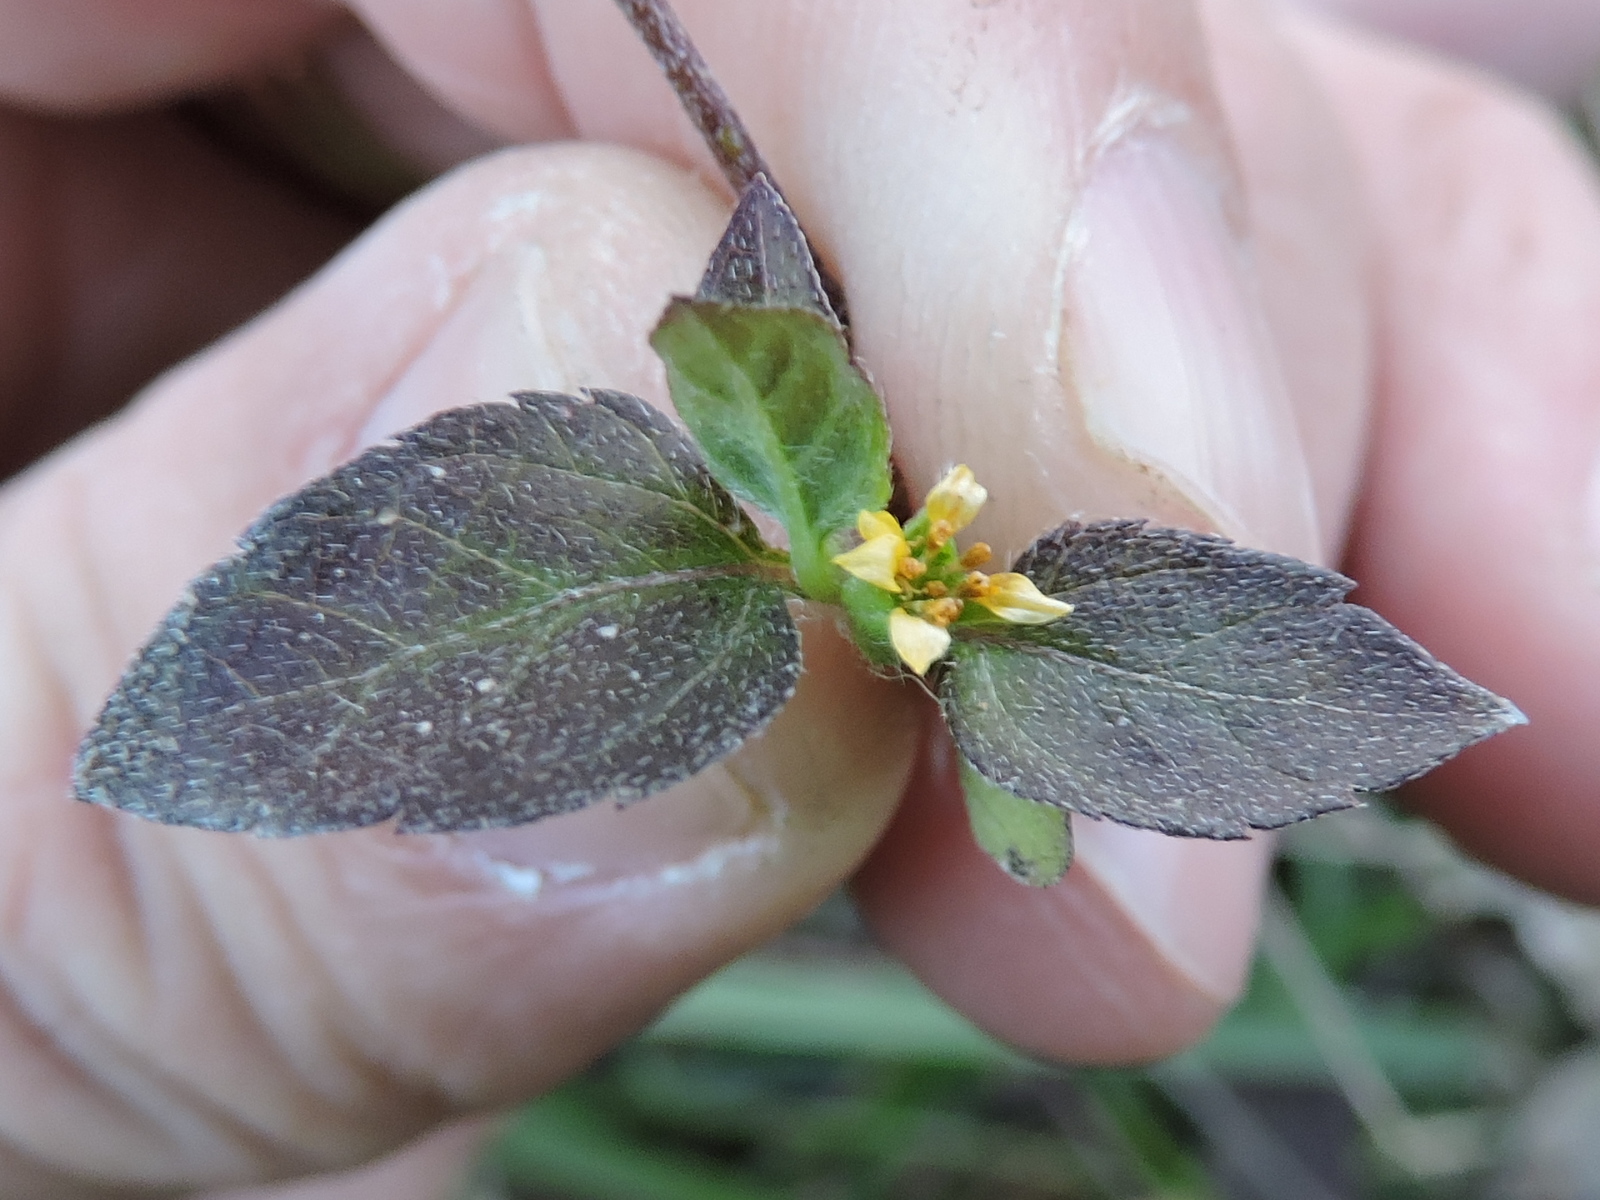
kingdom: Plantae
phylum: Tracheophyta
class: Magnoliopsida
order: Asterales
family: Asteraceae
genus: Calyptocarpus
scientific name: Calyptocarpus vialis
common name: Straggler daisy
